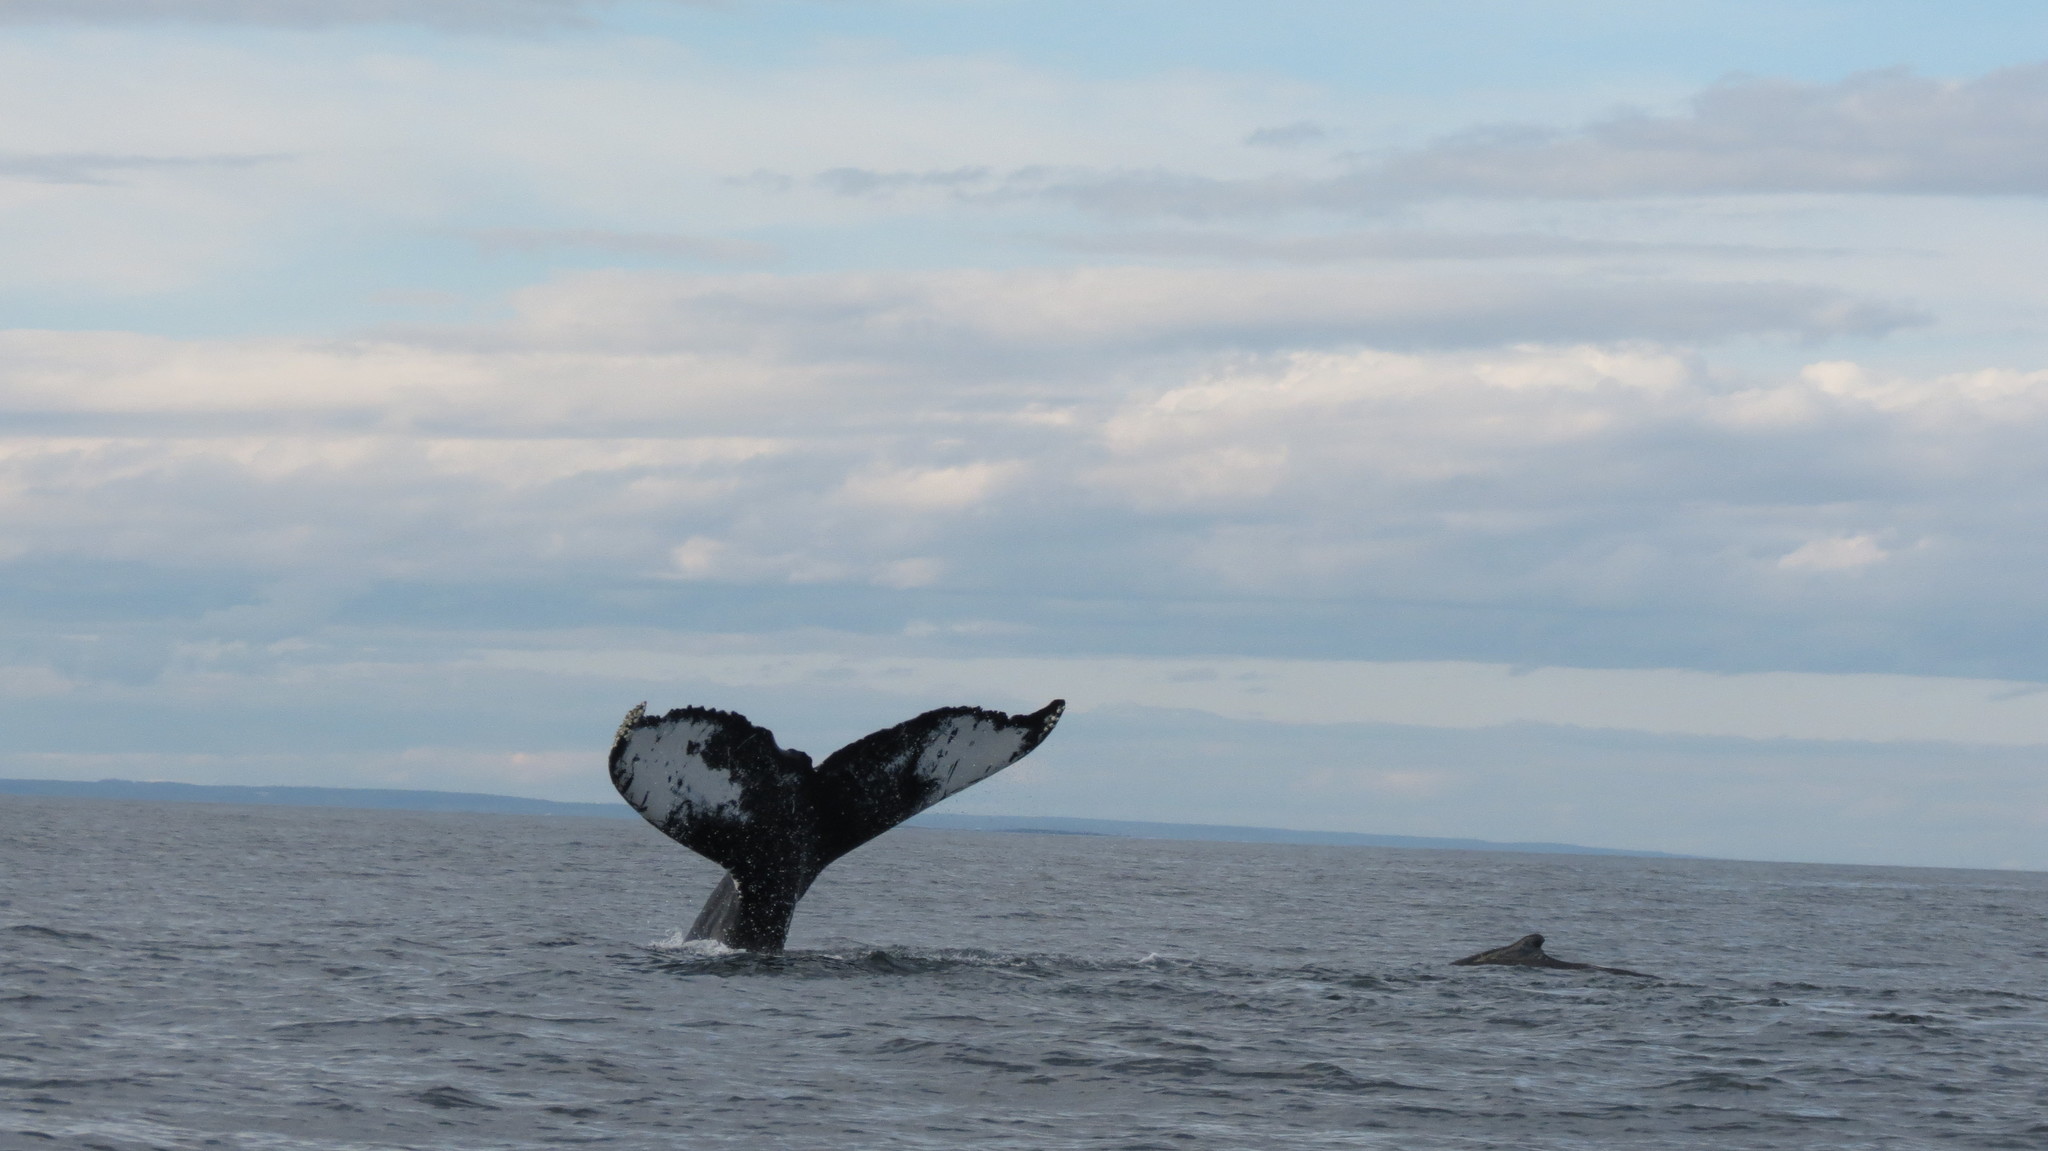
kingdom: Animalia
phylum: Chordata
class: Mammalia
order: Cetacea
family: Balaenopteridae
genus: Megaptera
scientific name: Megaptera novaeangliae
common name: Humpback whale
